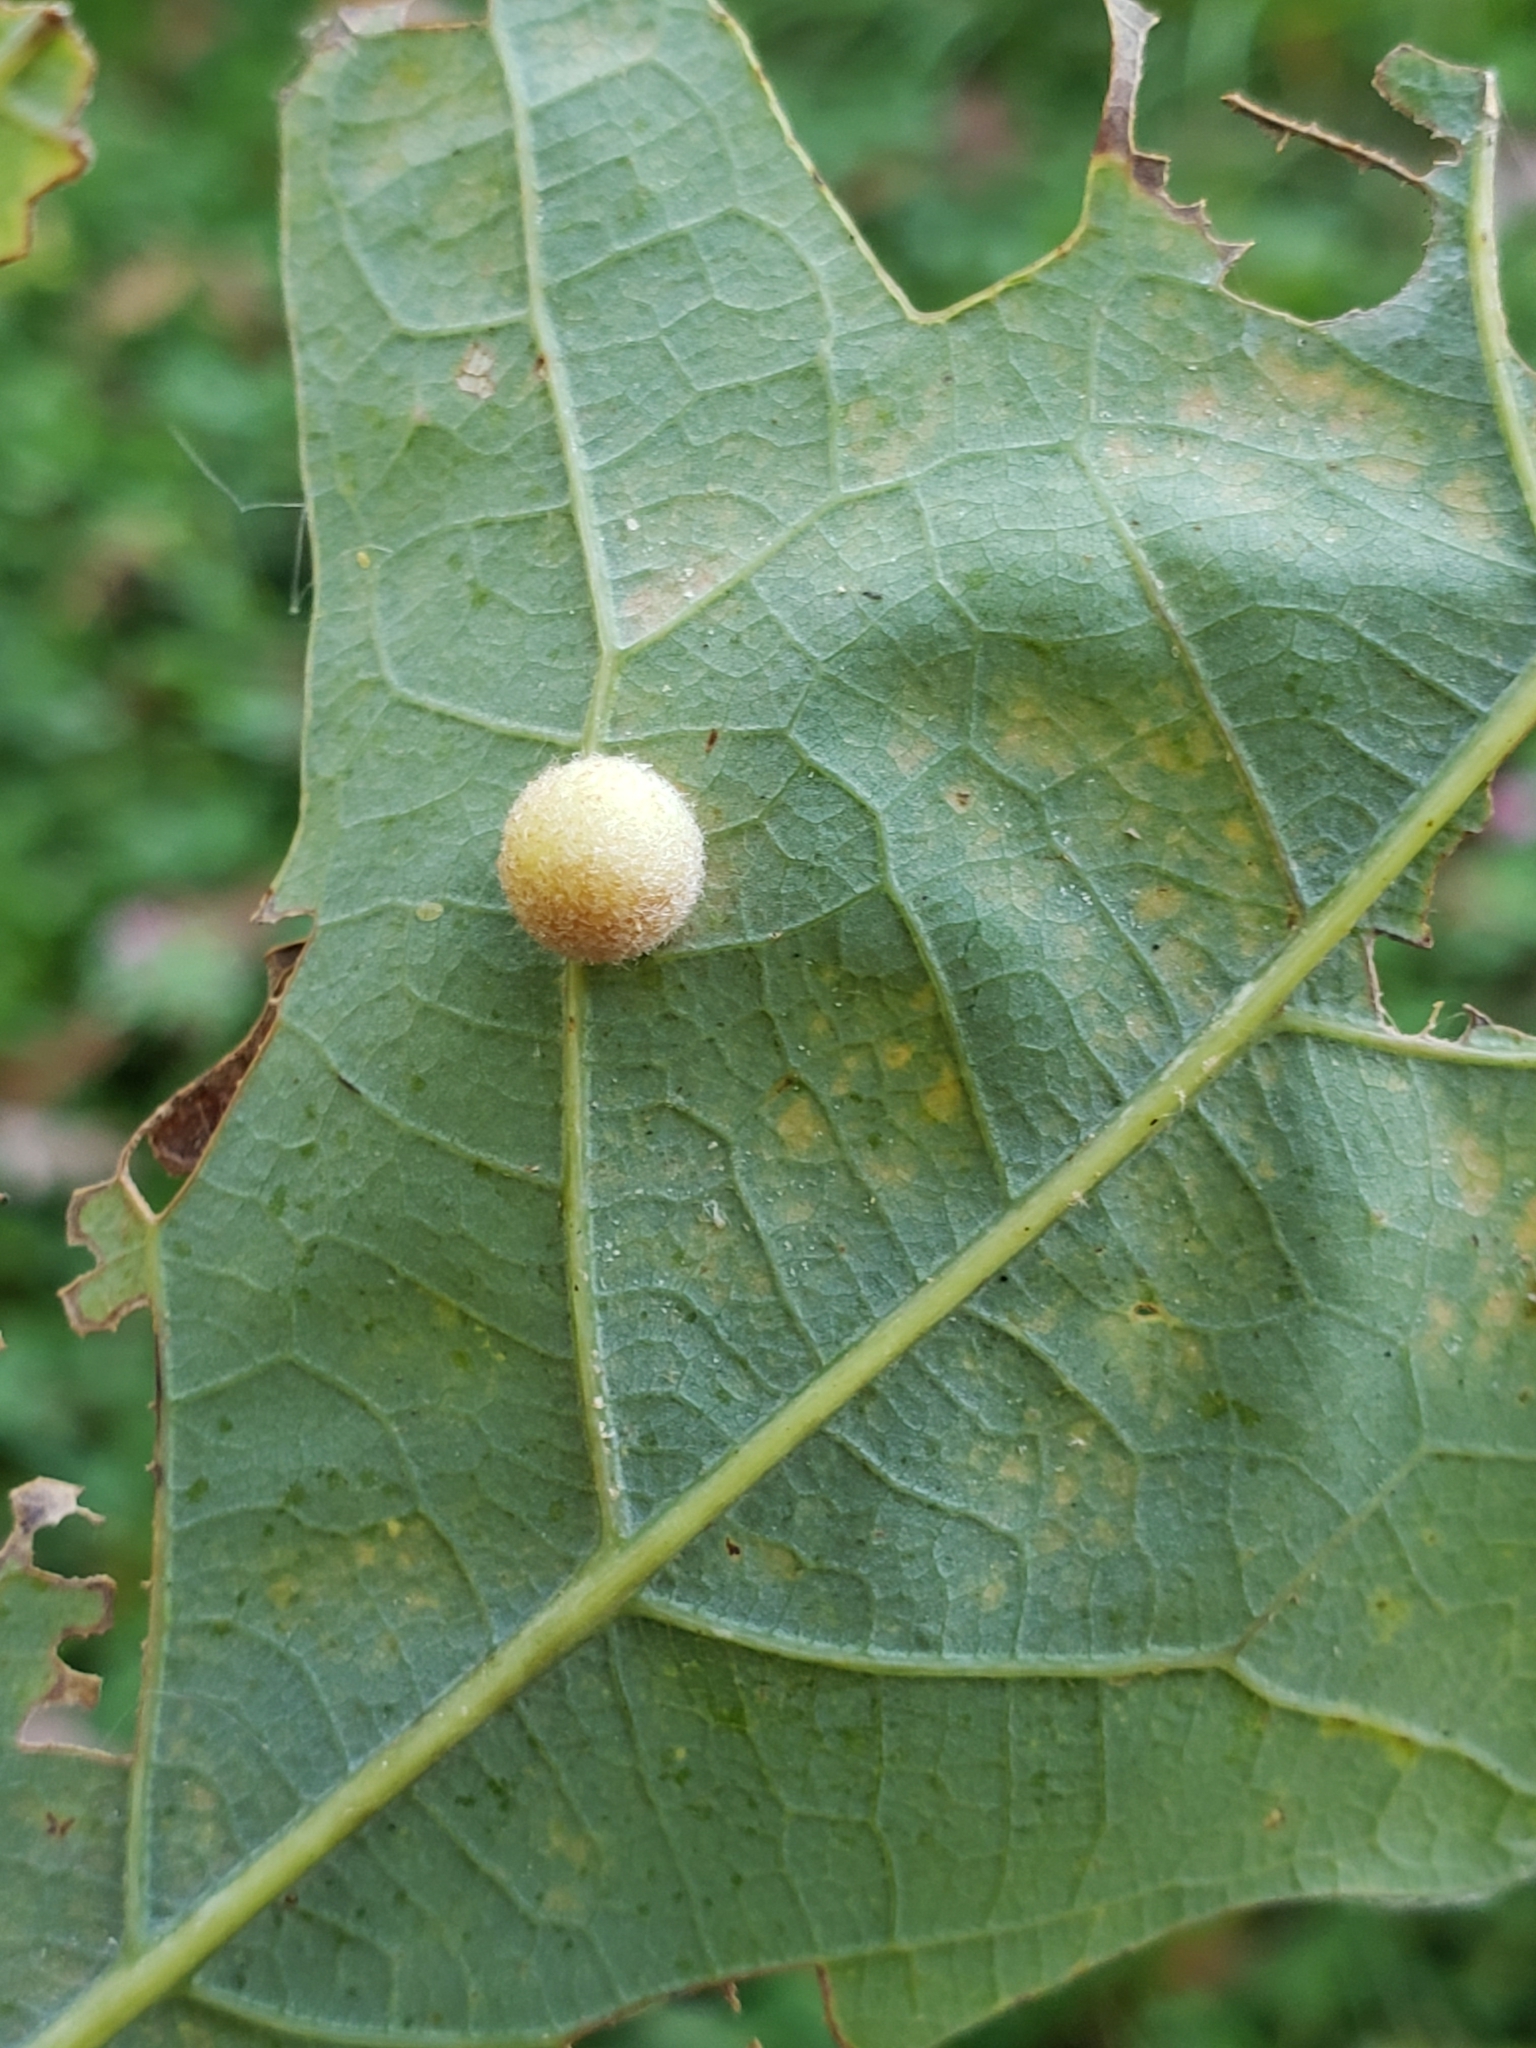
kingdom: Animalia
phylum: Arthropoda
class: Insecta
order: Hymenoptera
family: Cynipidae
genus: Philonix
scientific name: Philonix fulvicollis
